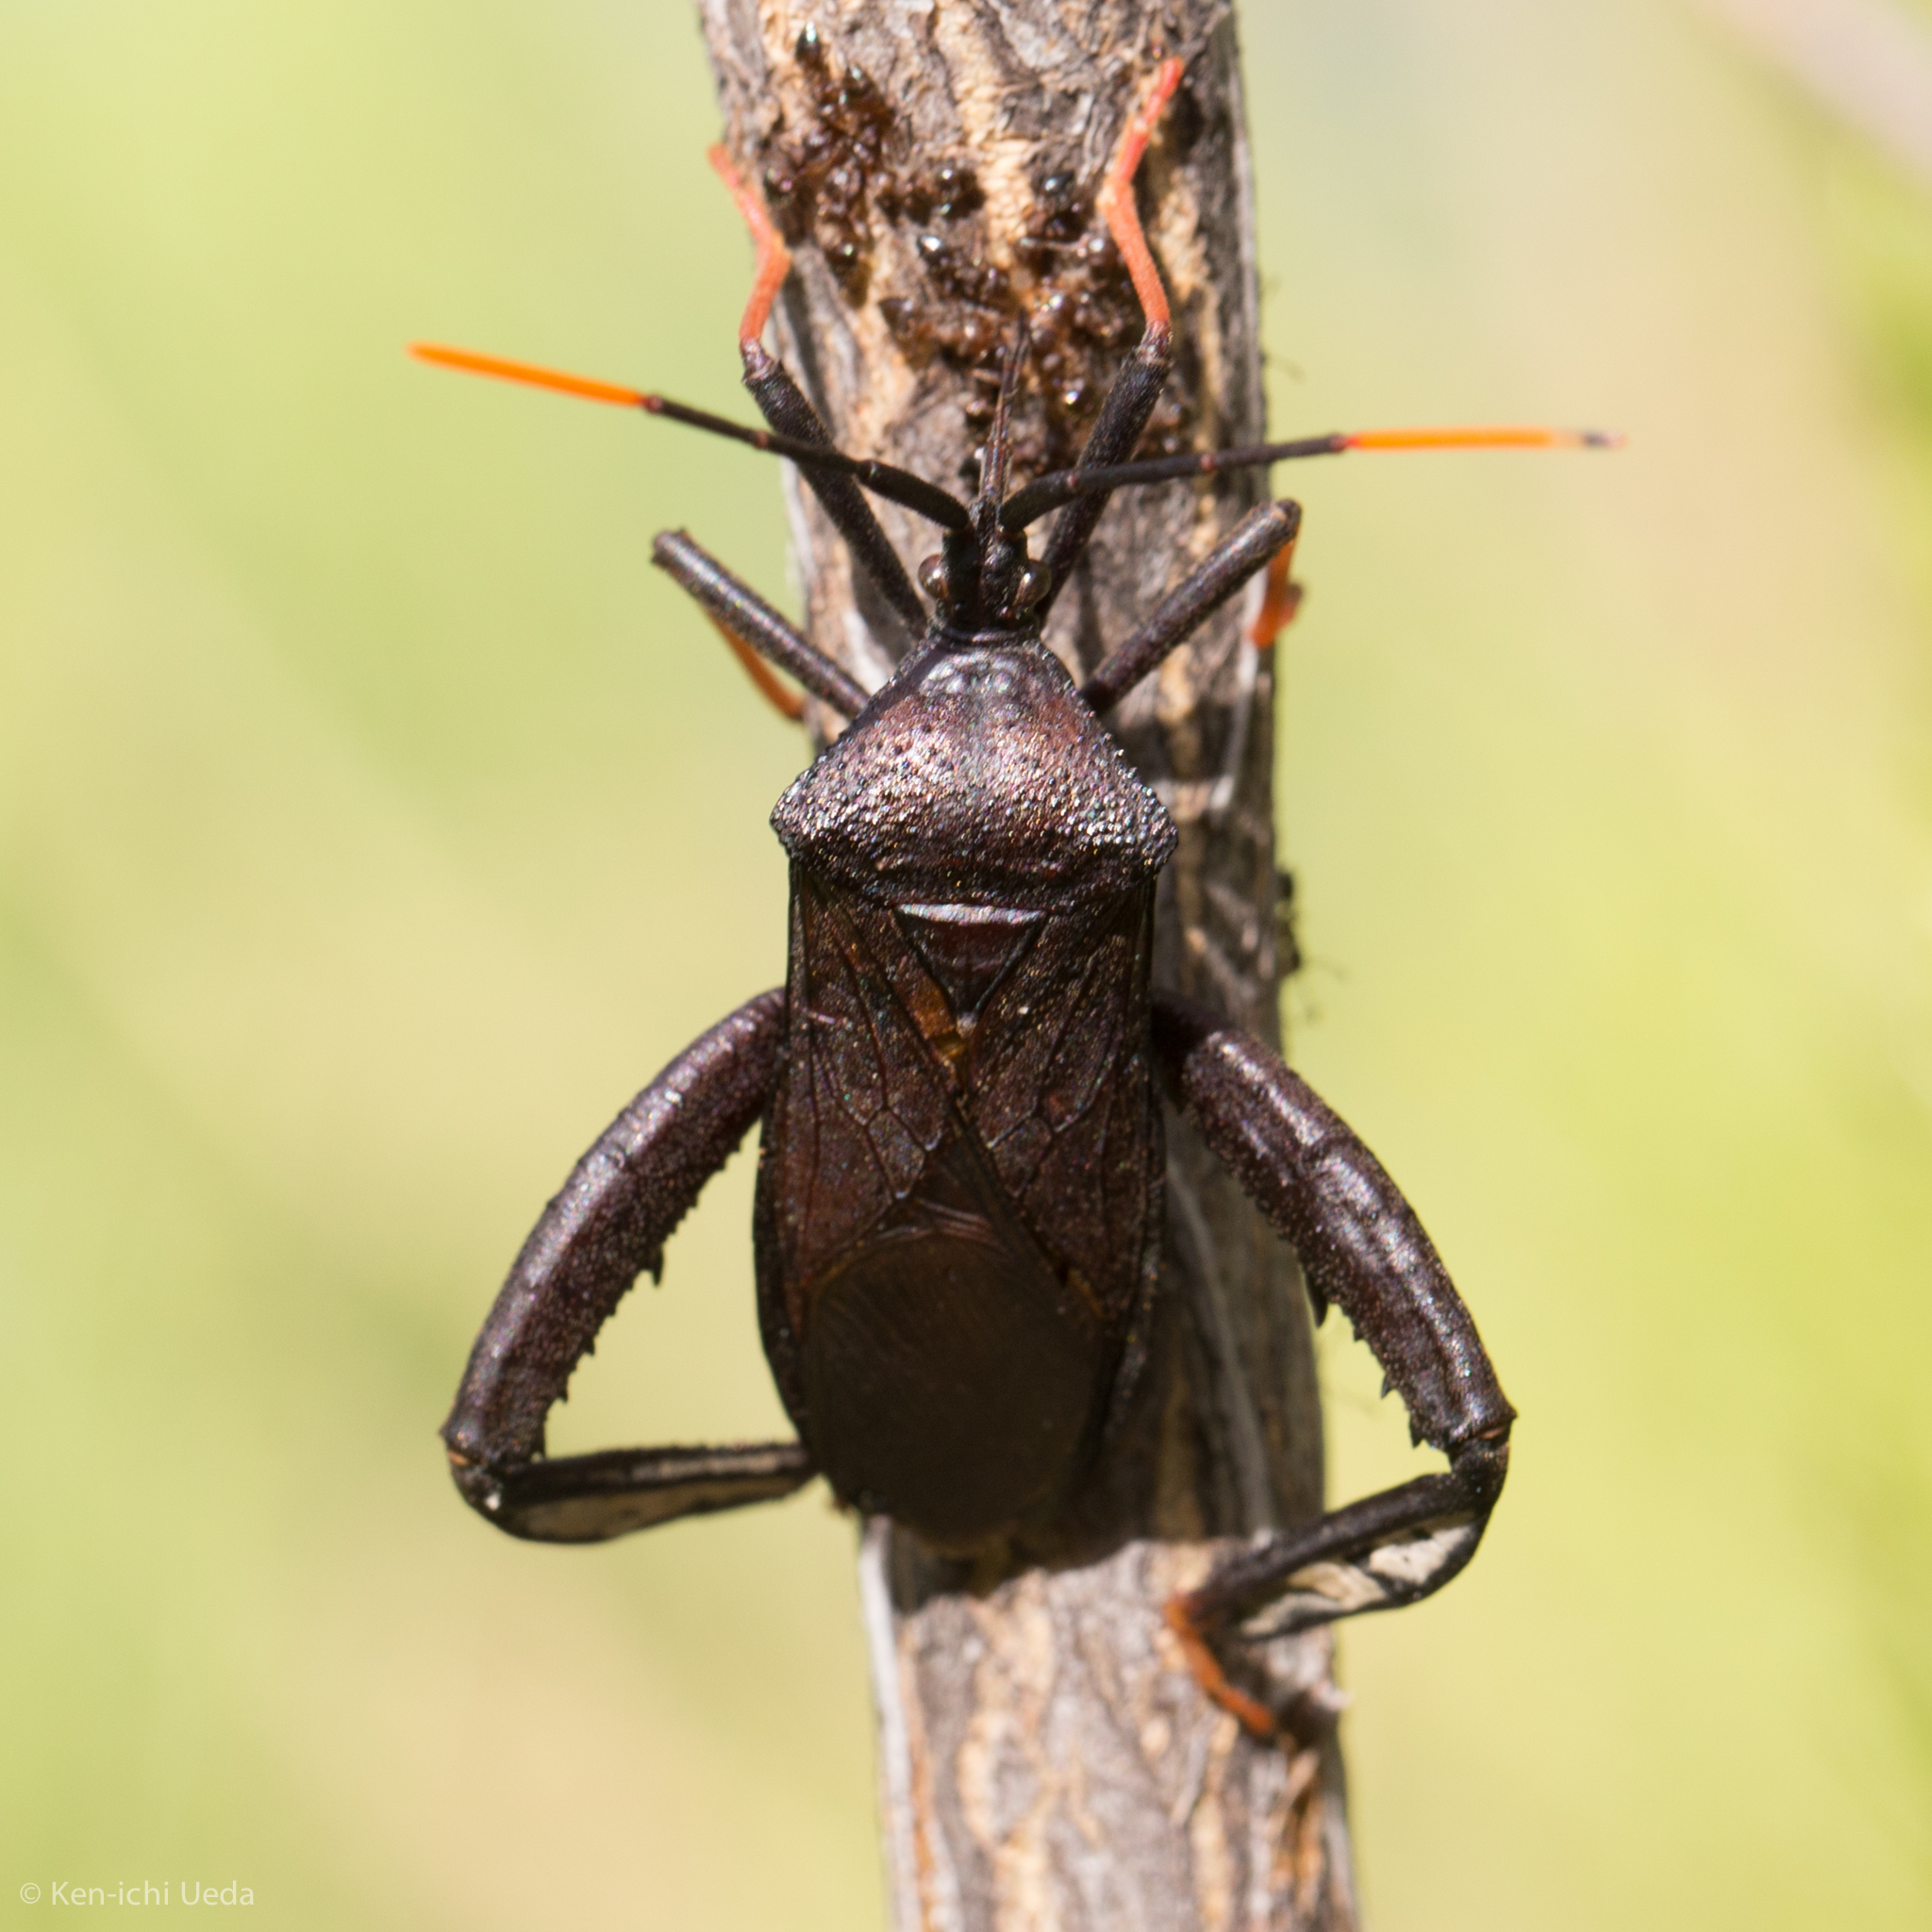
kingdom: Animalia
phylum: Arthropoda
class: Insecta
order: Hemiptera
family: Coreidae
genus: Acanthocephala
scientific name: Acanthocephala thomasi
